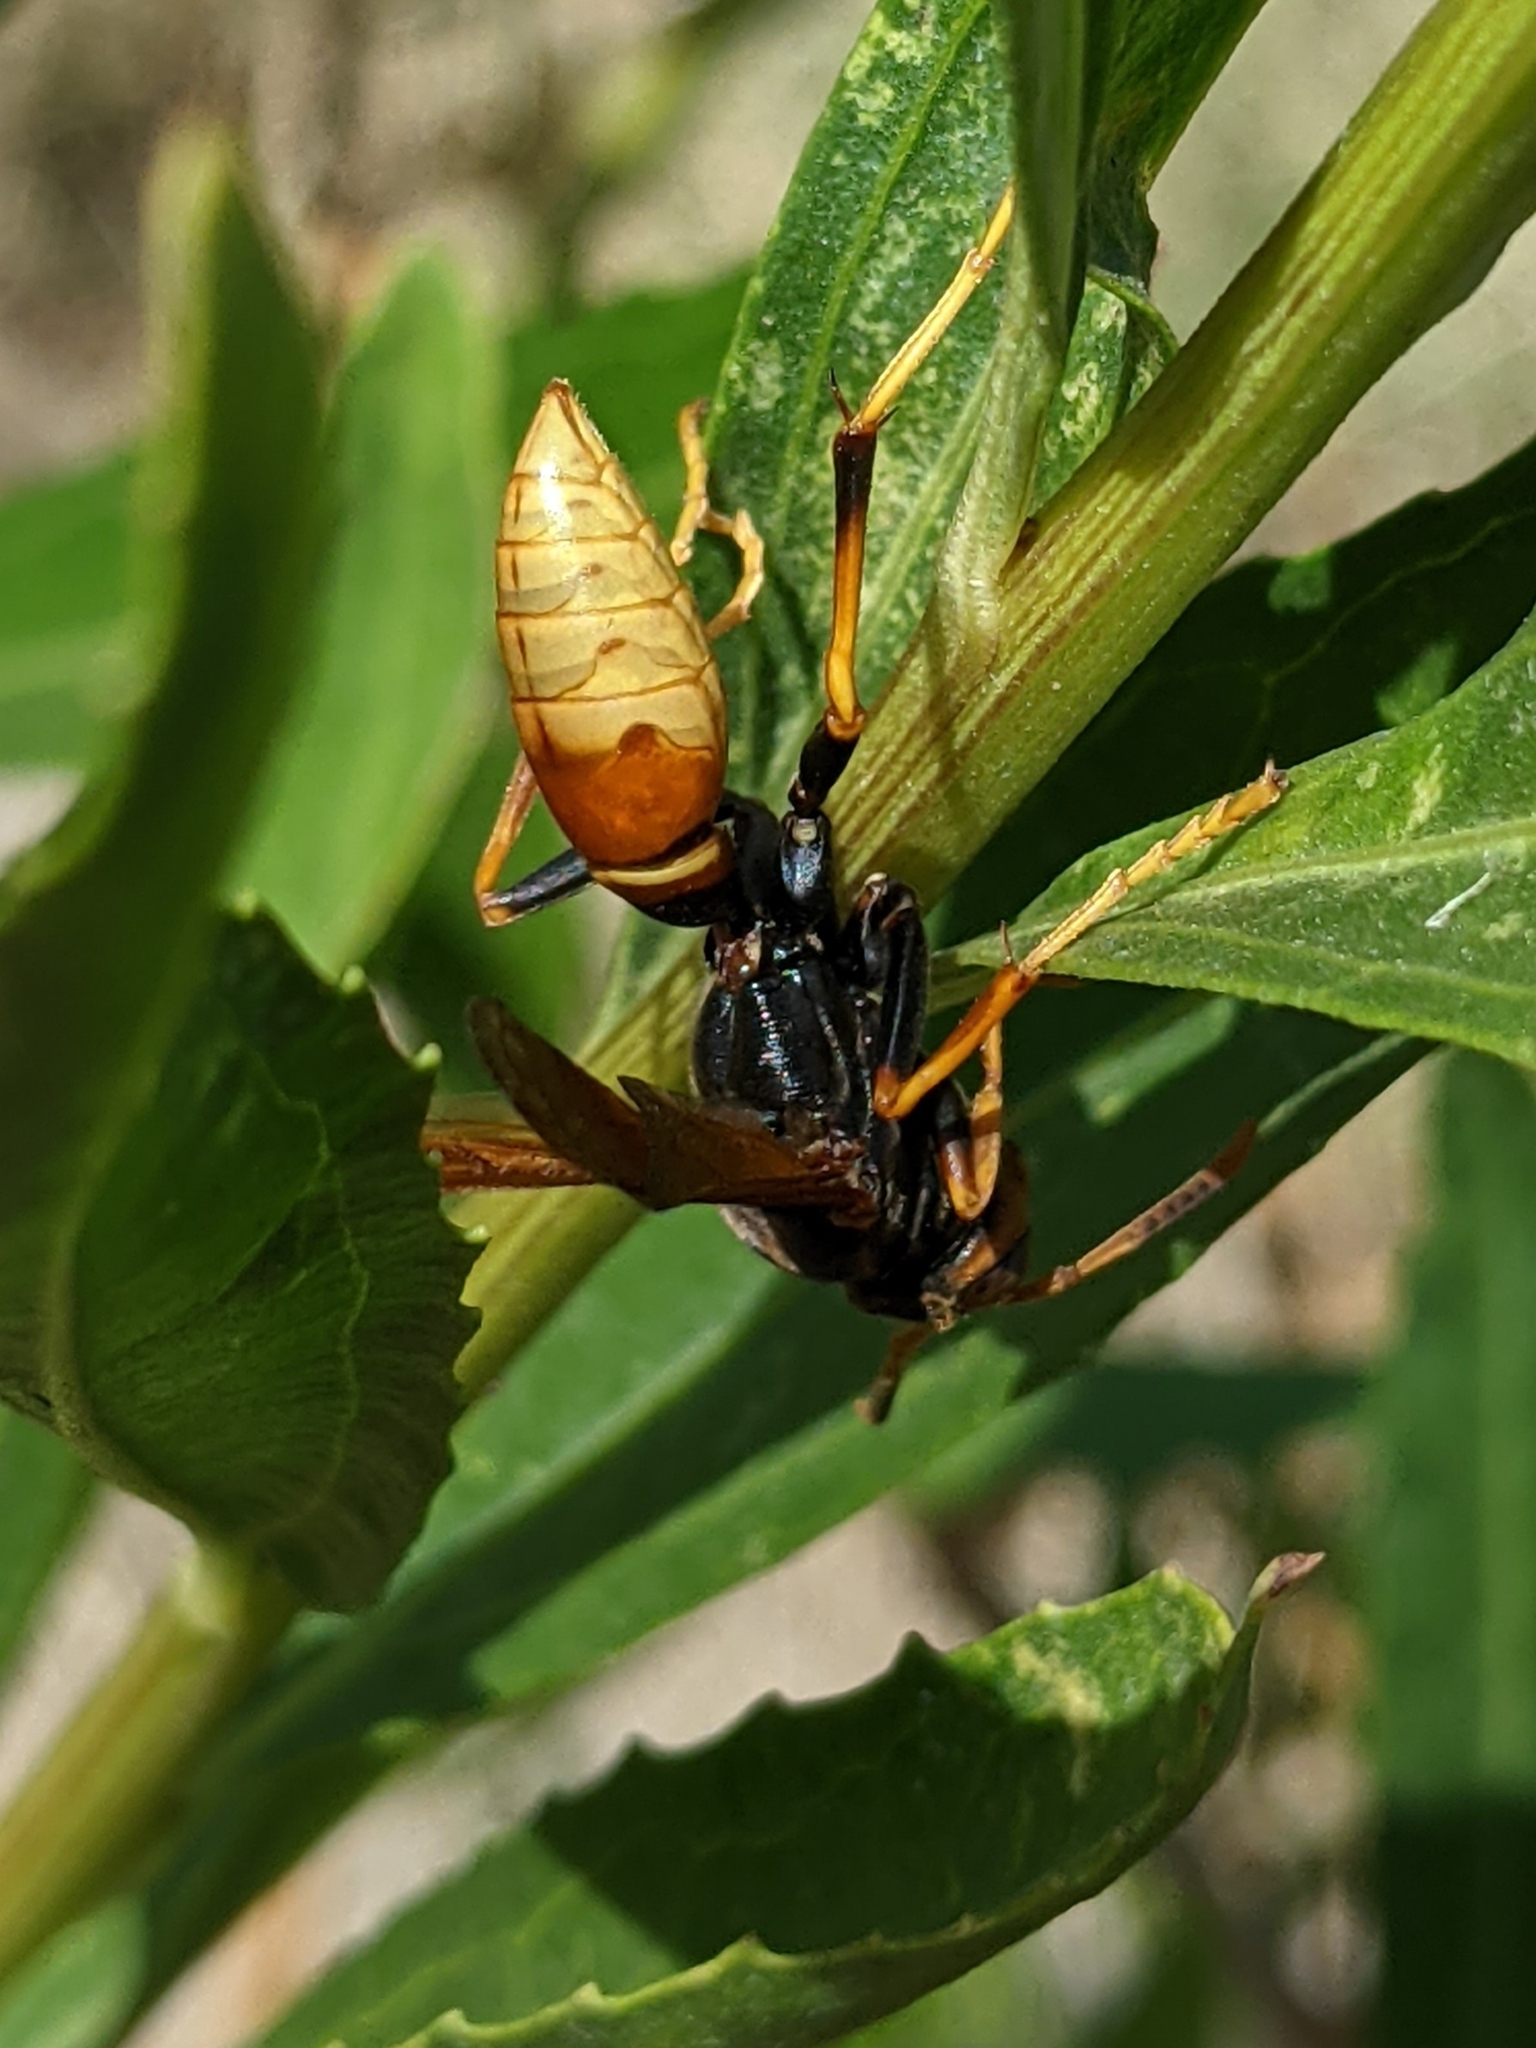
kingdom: Animalia
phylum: Arthropoda
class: Insecta
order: Hymenoptera
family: Eumenidae
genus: Polistes
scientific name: Polistes comanchus
